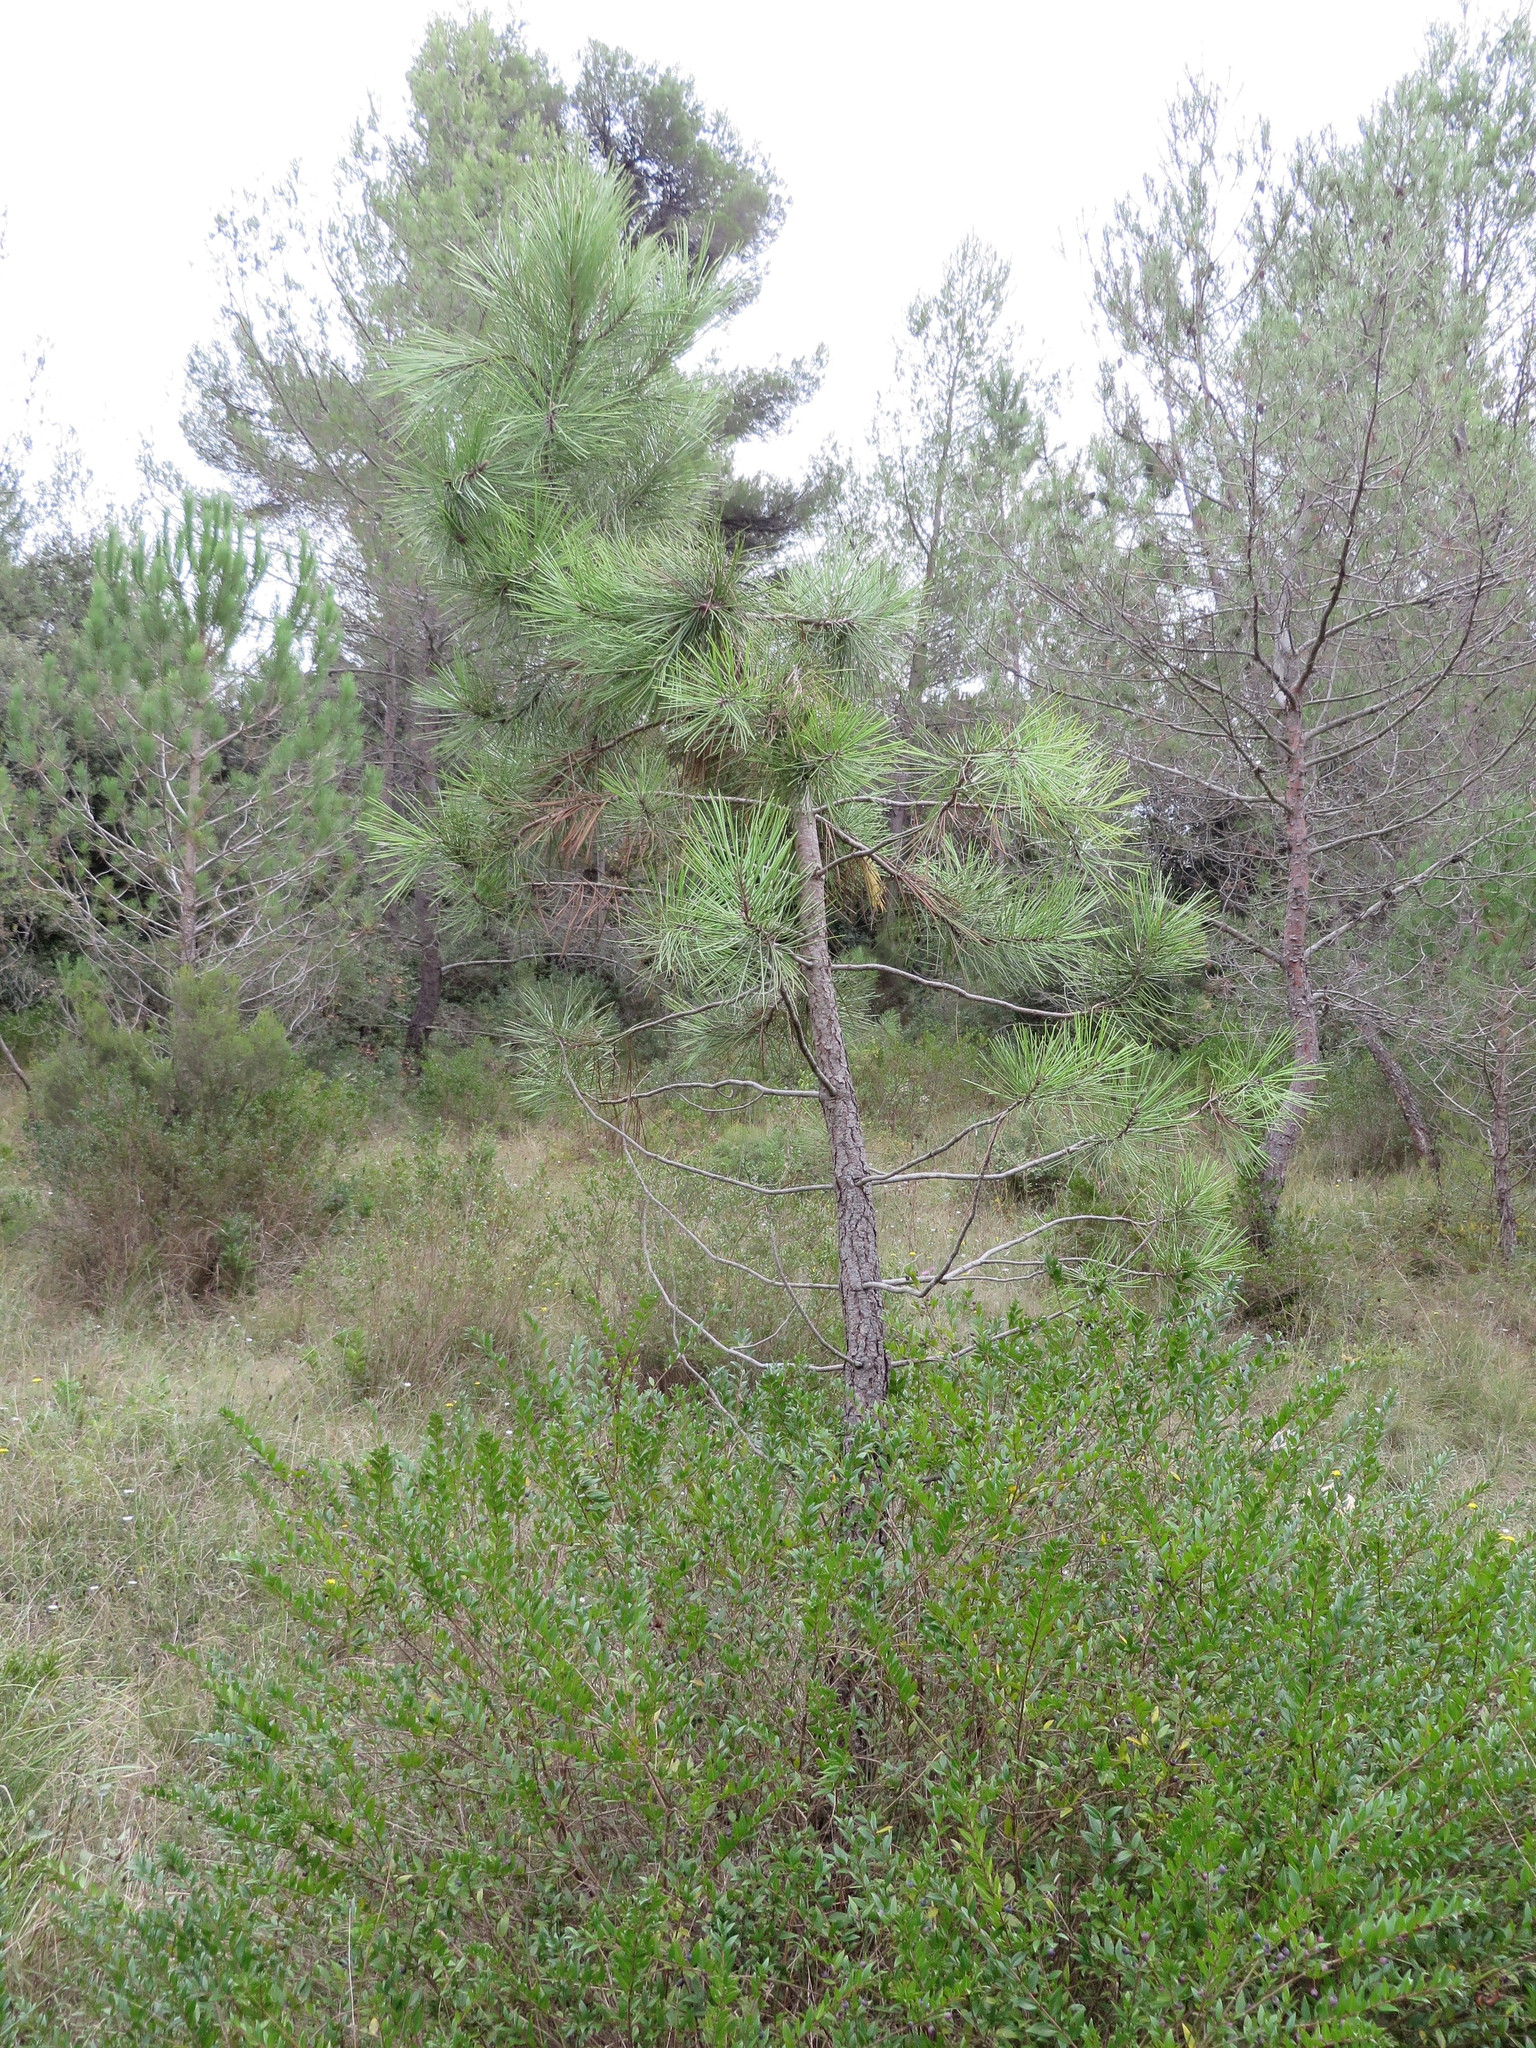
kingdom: Plantae
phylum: Tracheophyta
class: Pinopsida
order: Pinales
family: Pinaceae
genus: Pinus
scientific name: Pinus pinaster
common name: Maritime pine
